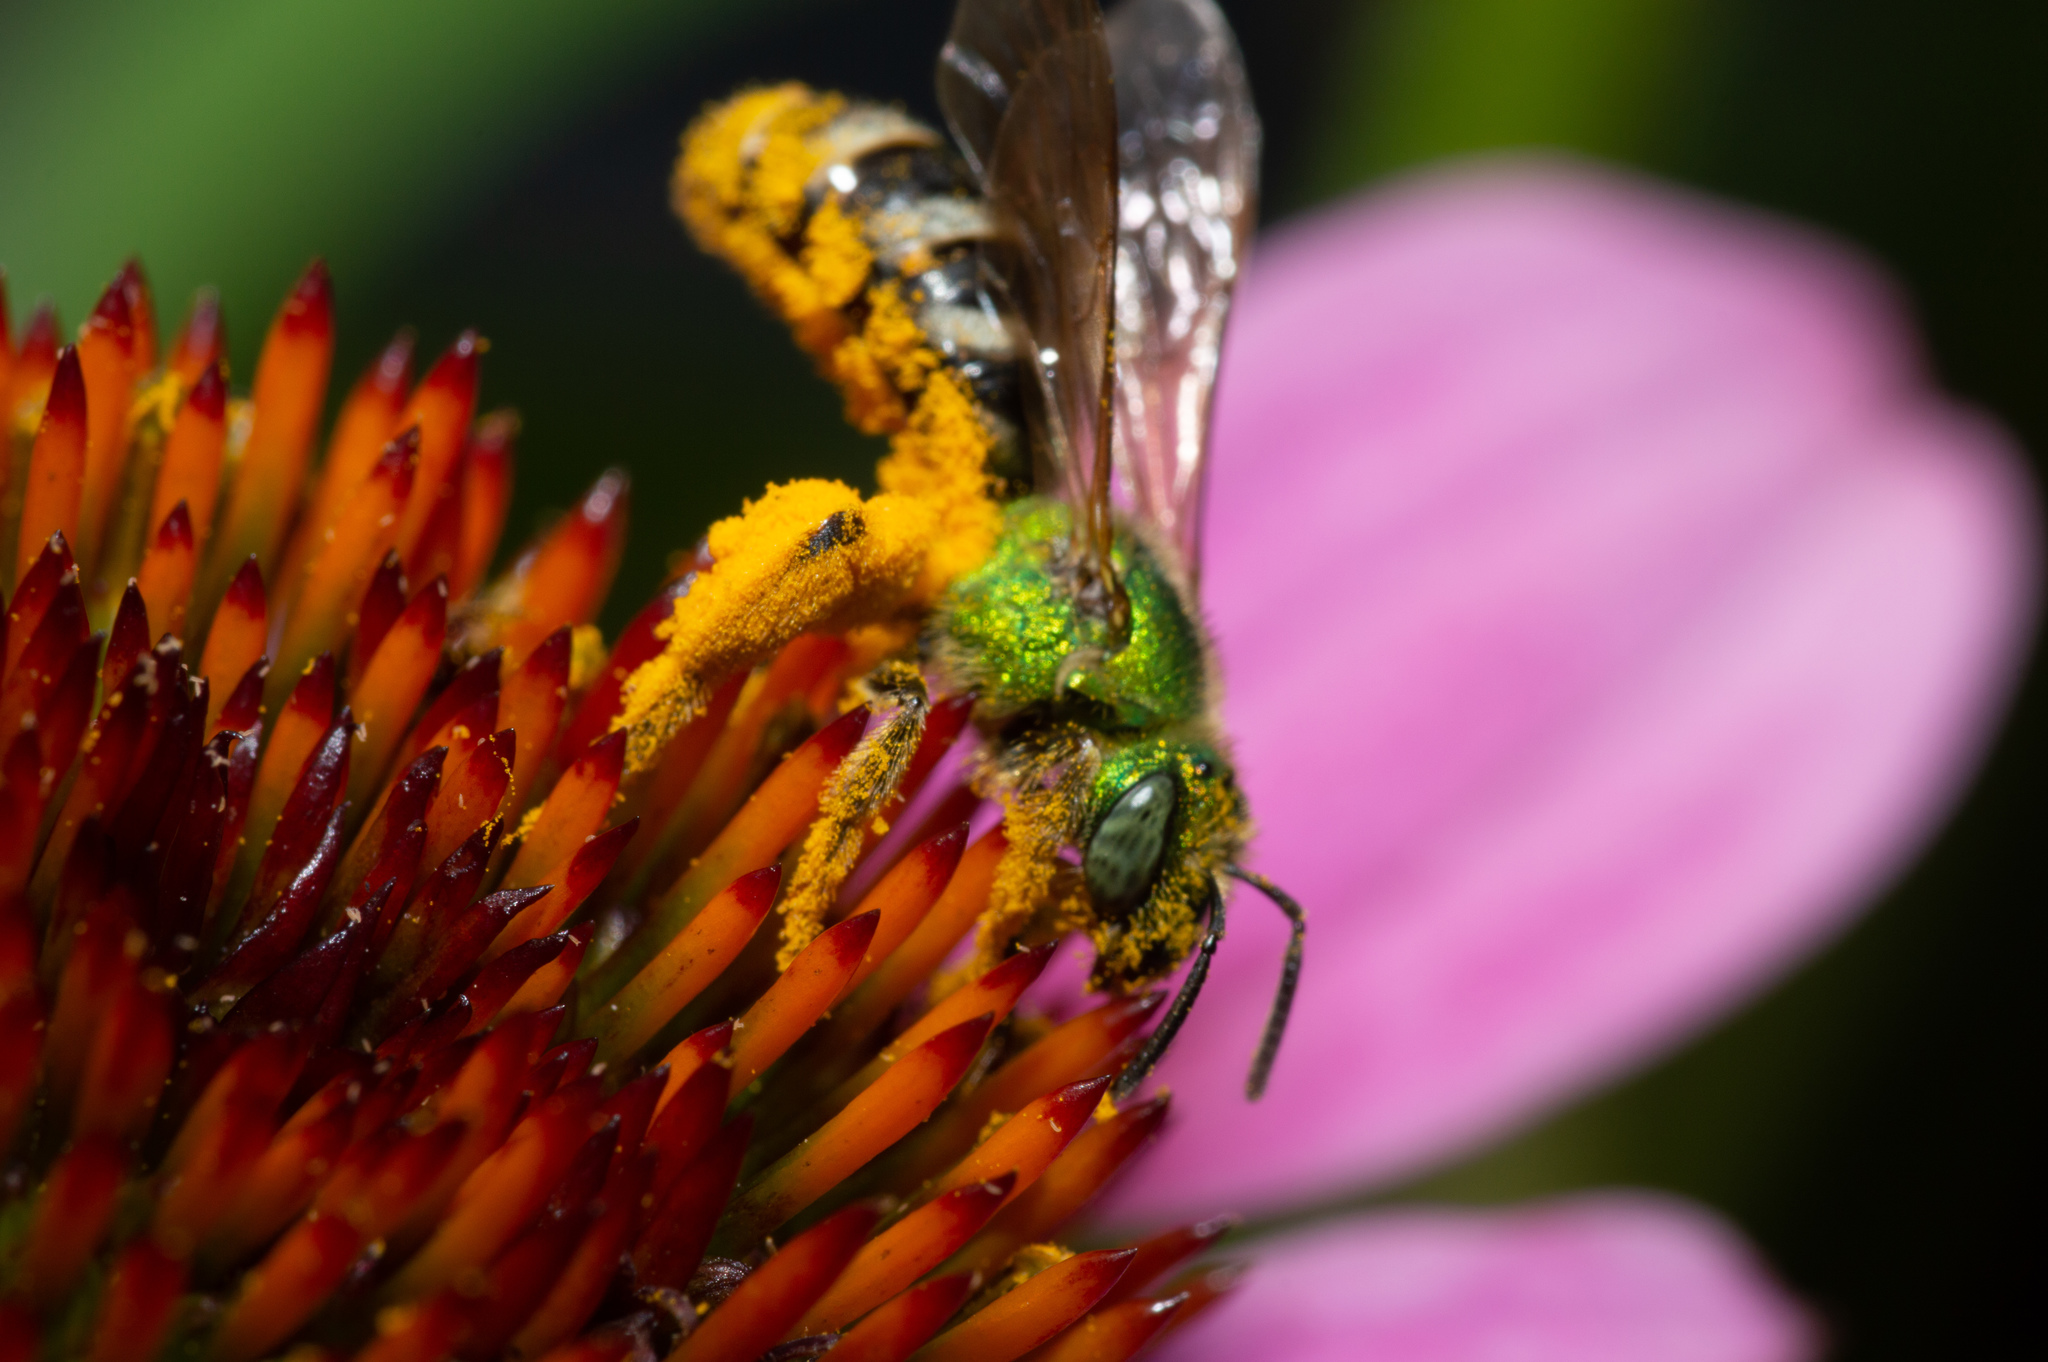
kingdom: Animalia
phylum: Arthropoda
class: Insecta
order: Hymenoptera
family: Halictidae
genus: Agapostemon
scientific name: Agapostemon virescens
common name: Bicolored striped sweat bee
